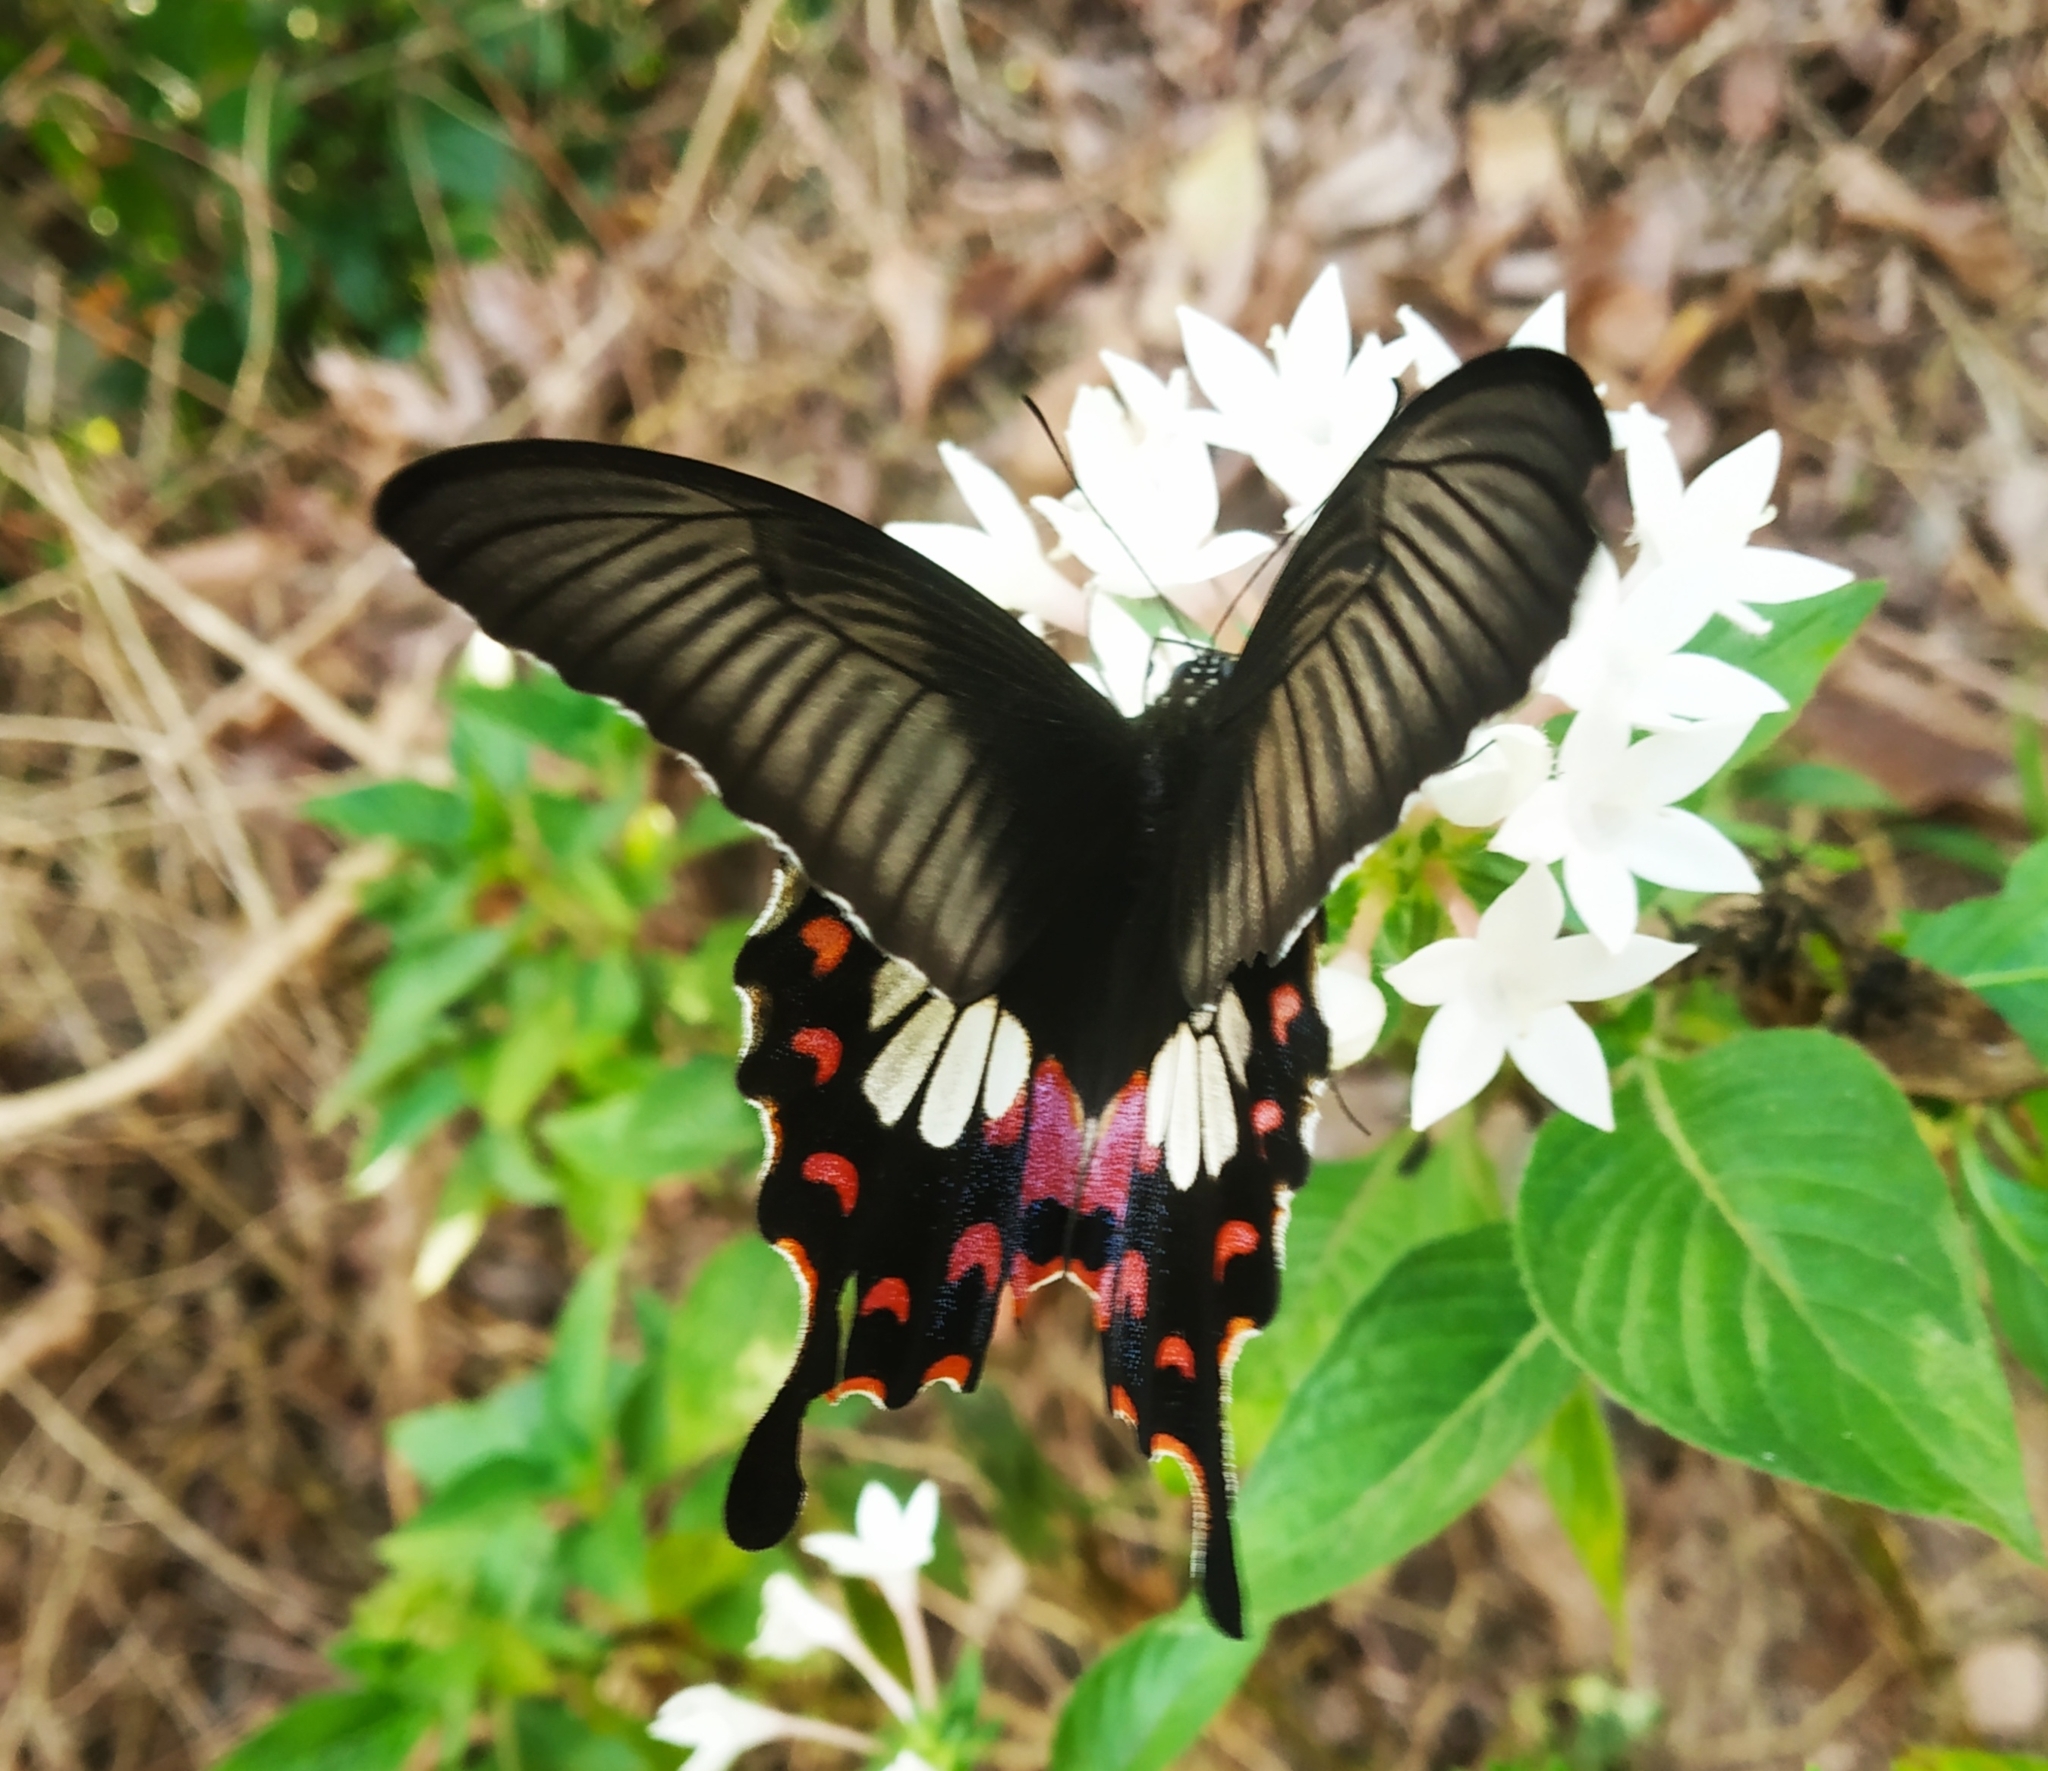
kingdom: Animalia
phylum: Arthropoda
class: Insecta
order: Lepidoptera
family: Papilionidae
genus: Papilio
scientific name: Papilio polytes
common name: Common mormon
